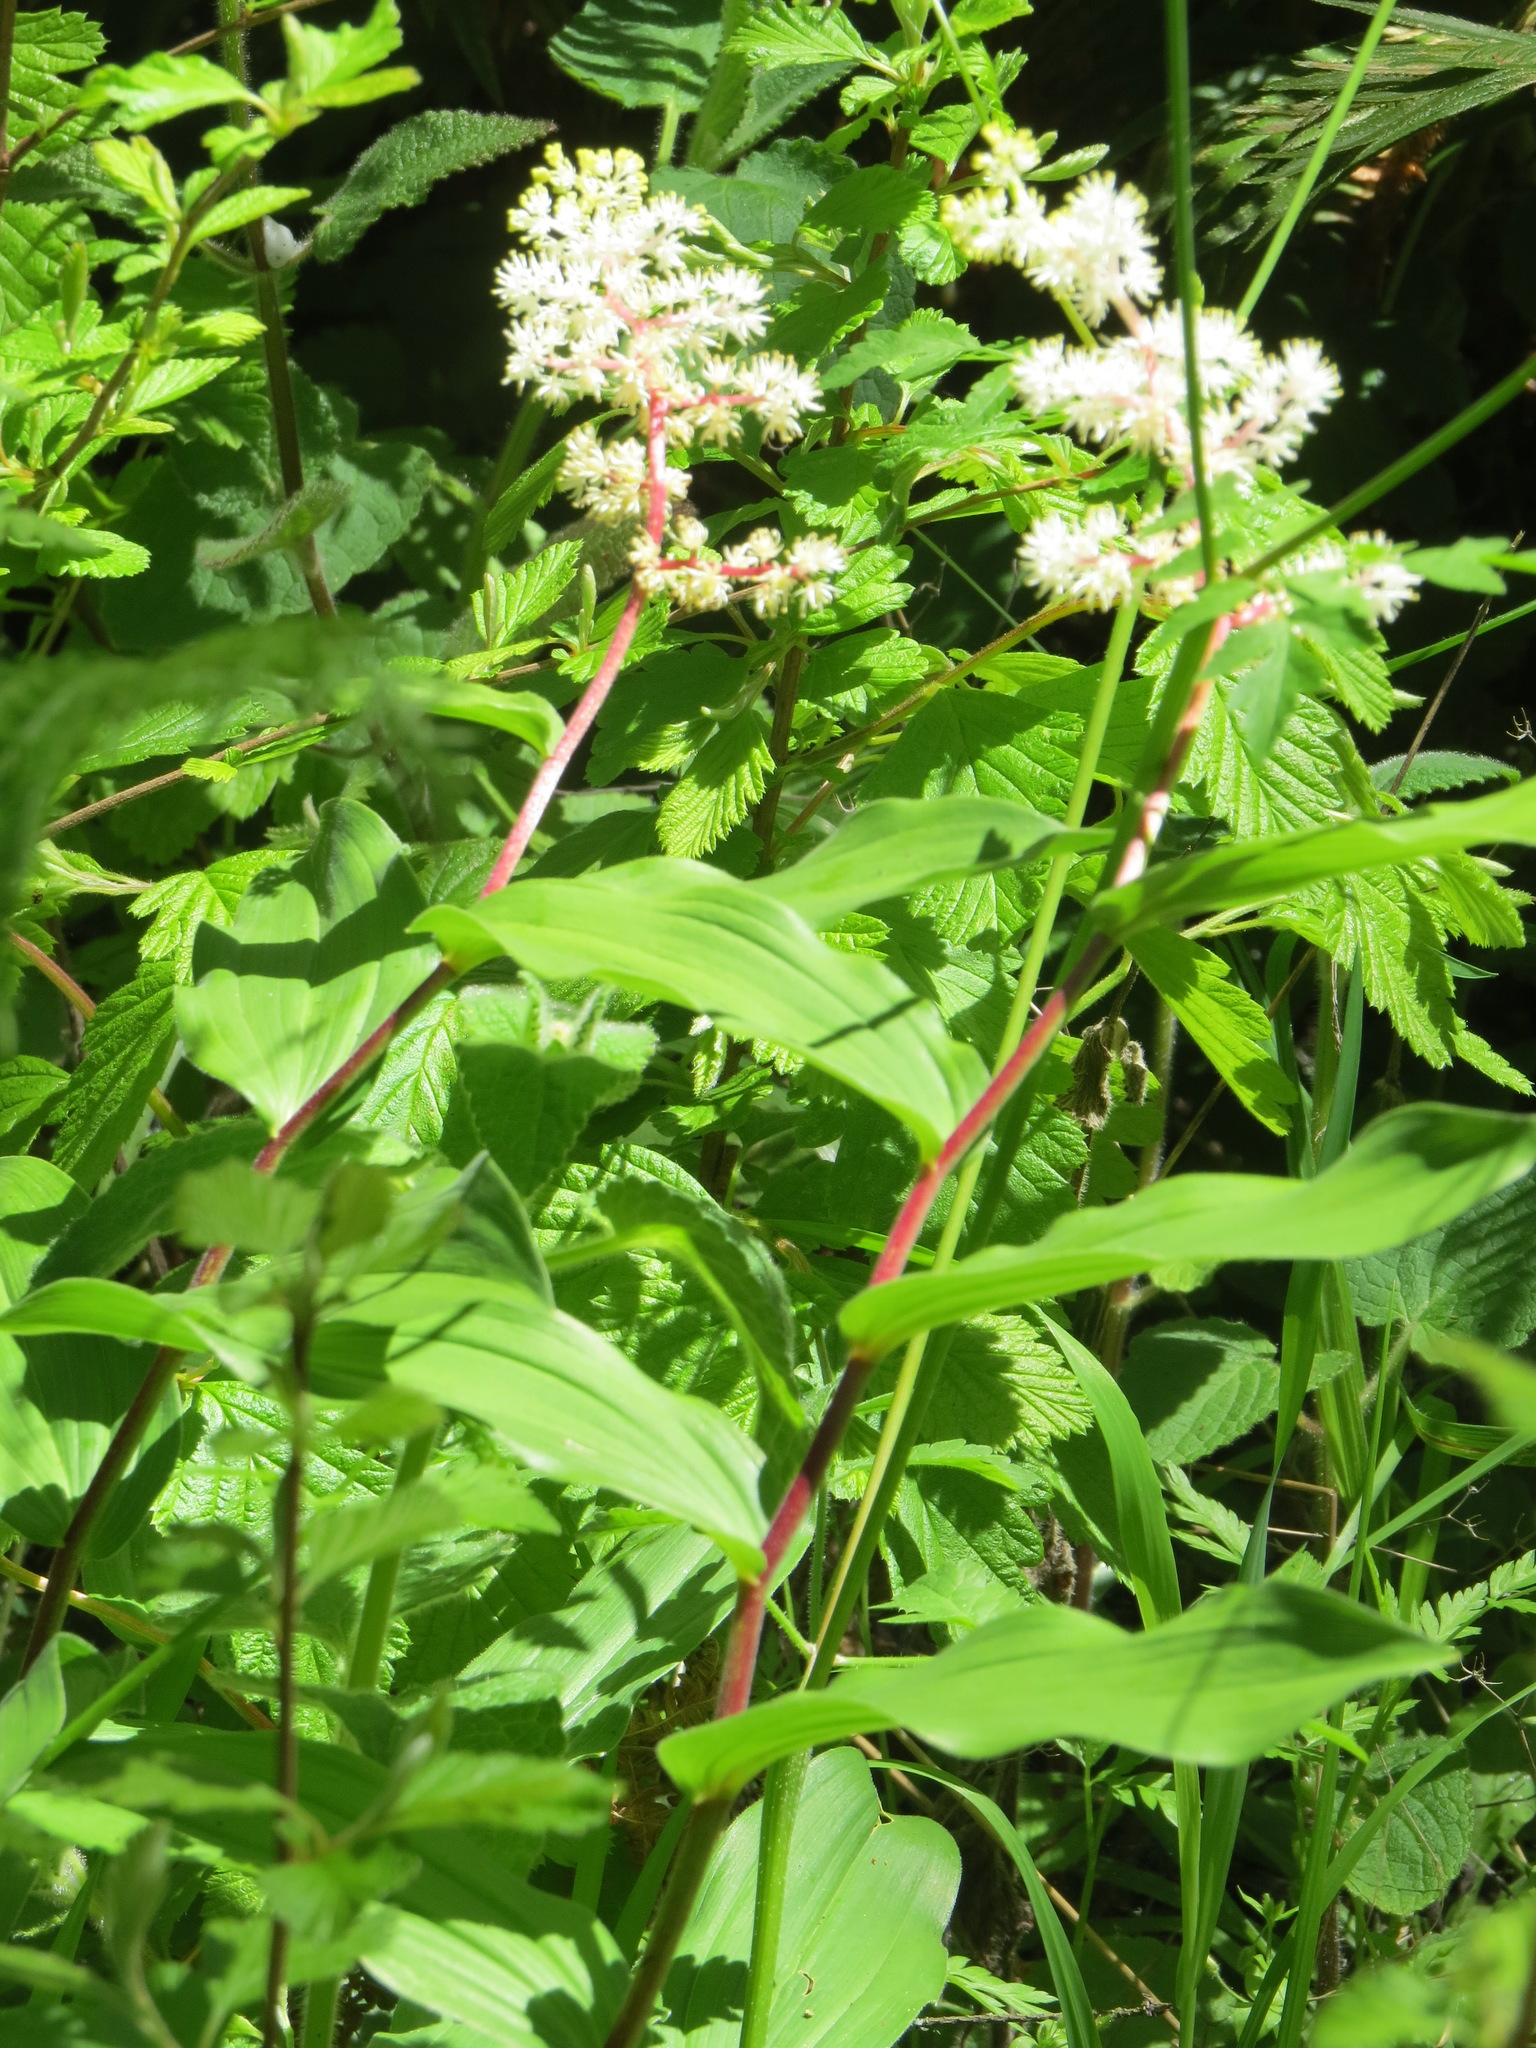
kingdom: Plantae
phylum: Tracheophyta
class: Liliopsida
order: Asparagales
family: Asparagaceae
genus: Maianthemum
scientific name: Maianthemum racemosum
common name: False spikenard
